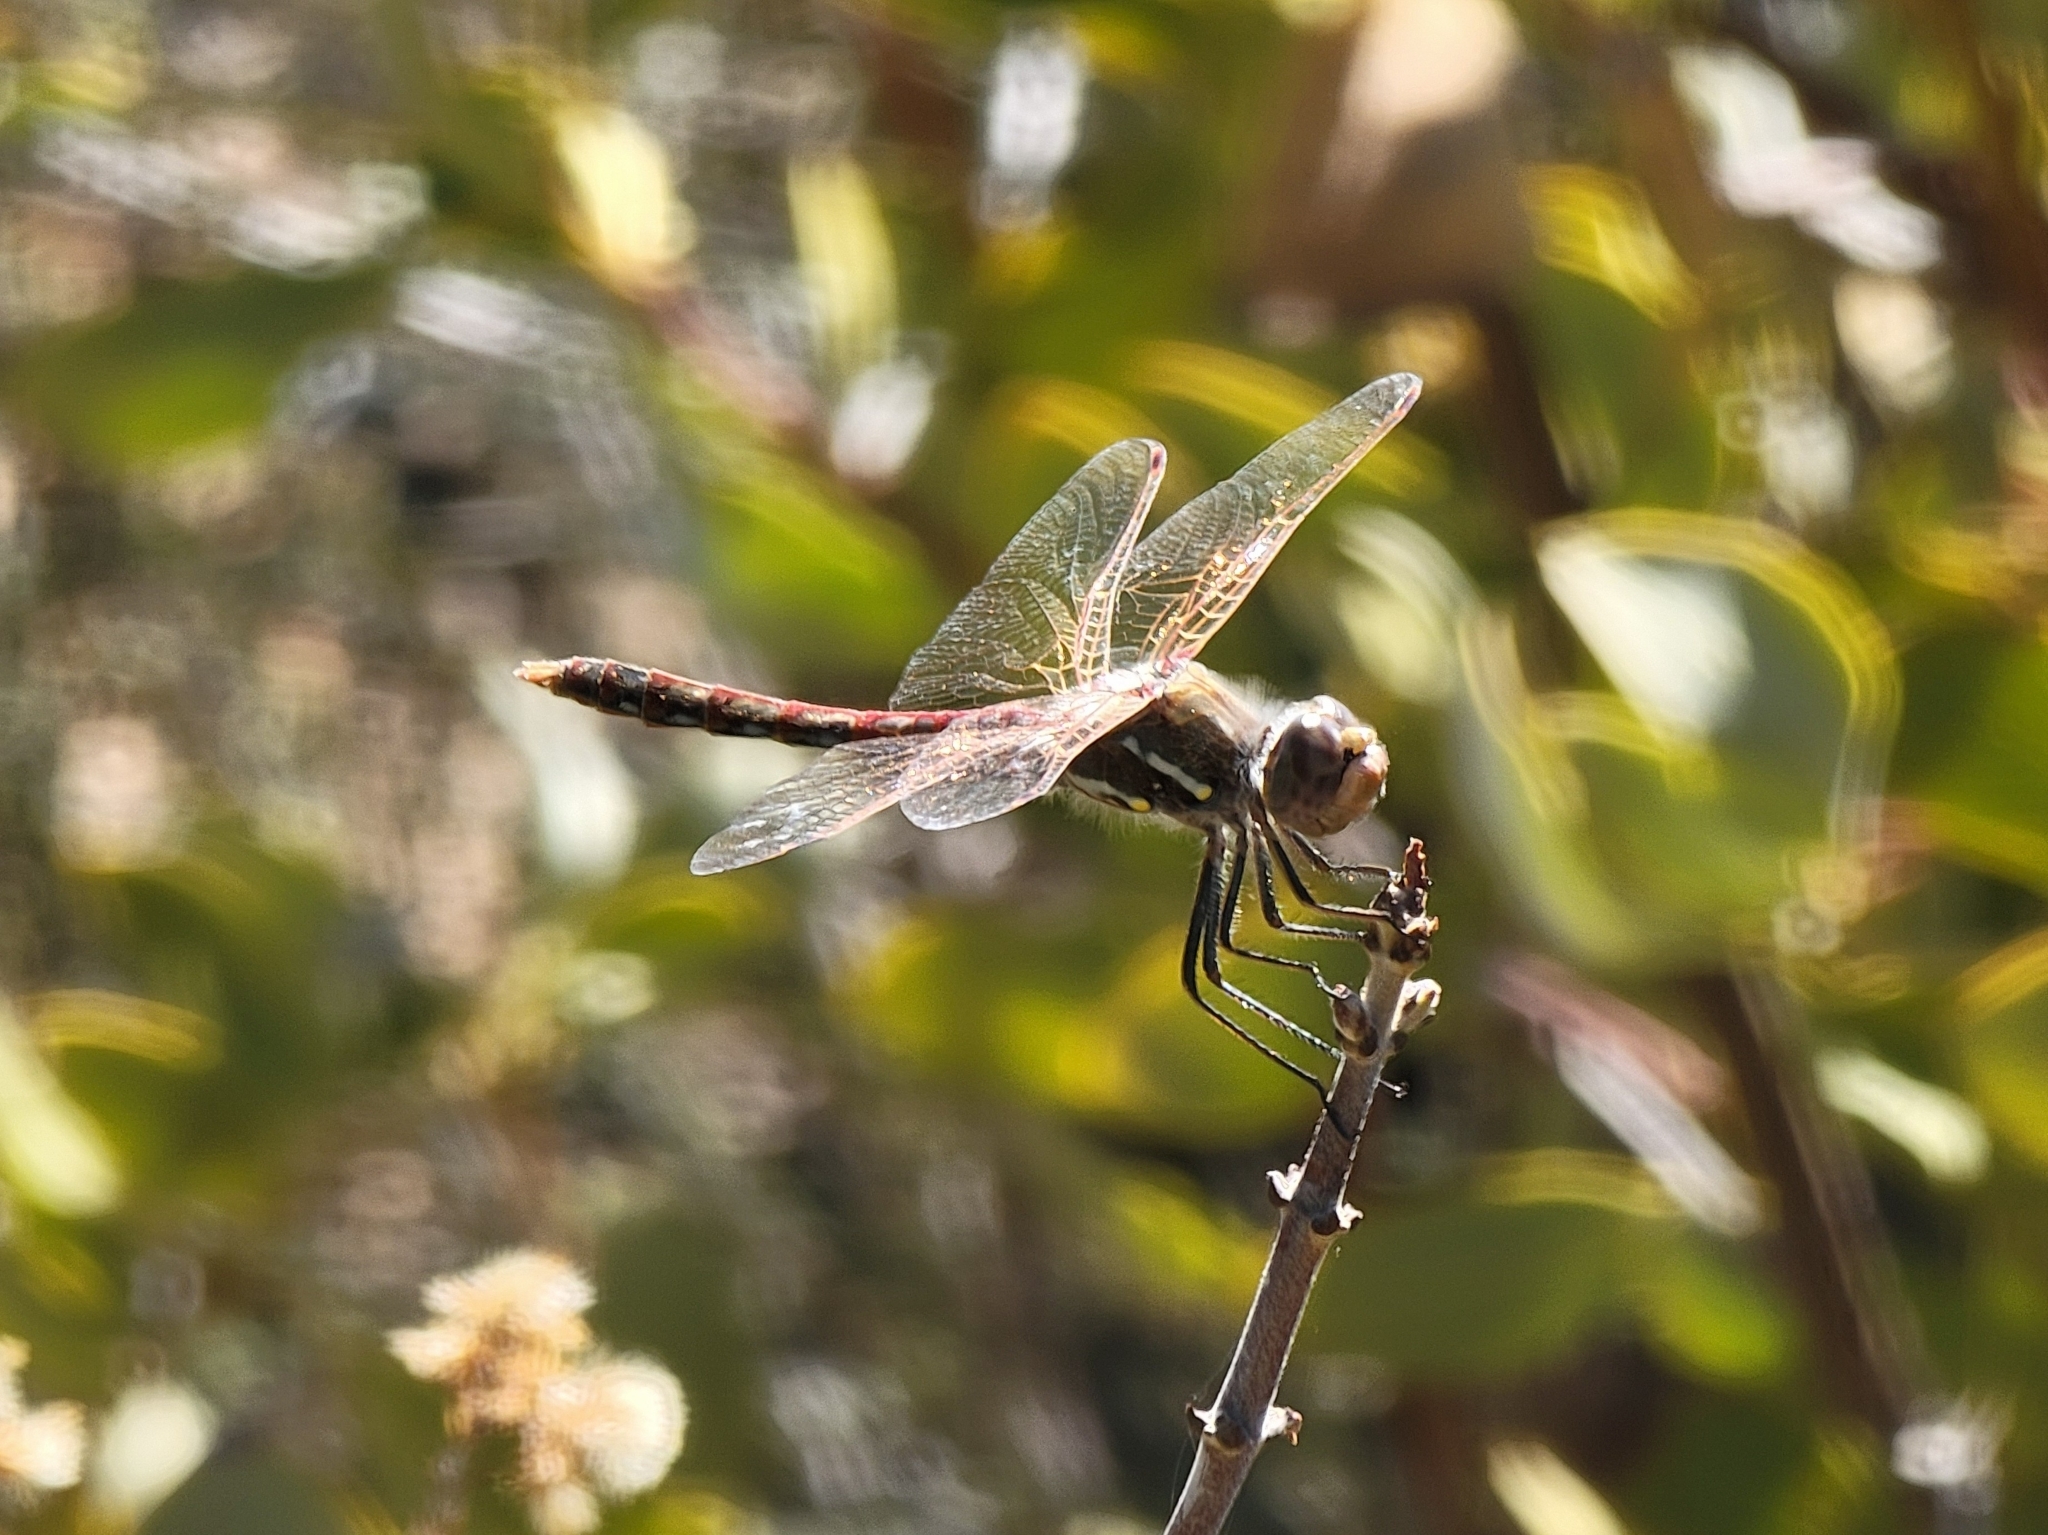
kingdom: Animalia
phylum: Arthropoda
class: Insecta
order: Odonata
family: Libellulidae
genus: Sympetrum
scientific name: Sympetrum corruptum
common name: Variegated meadowhawk
